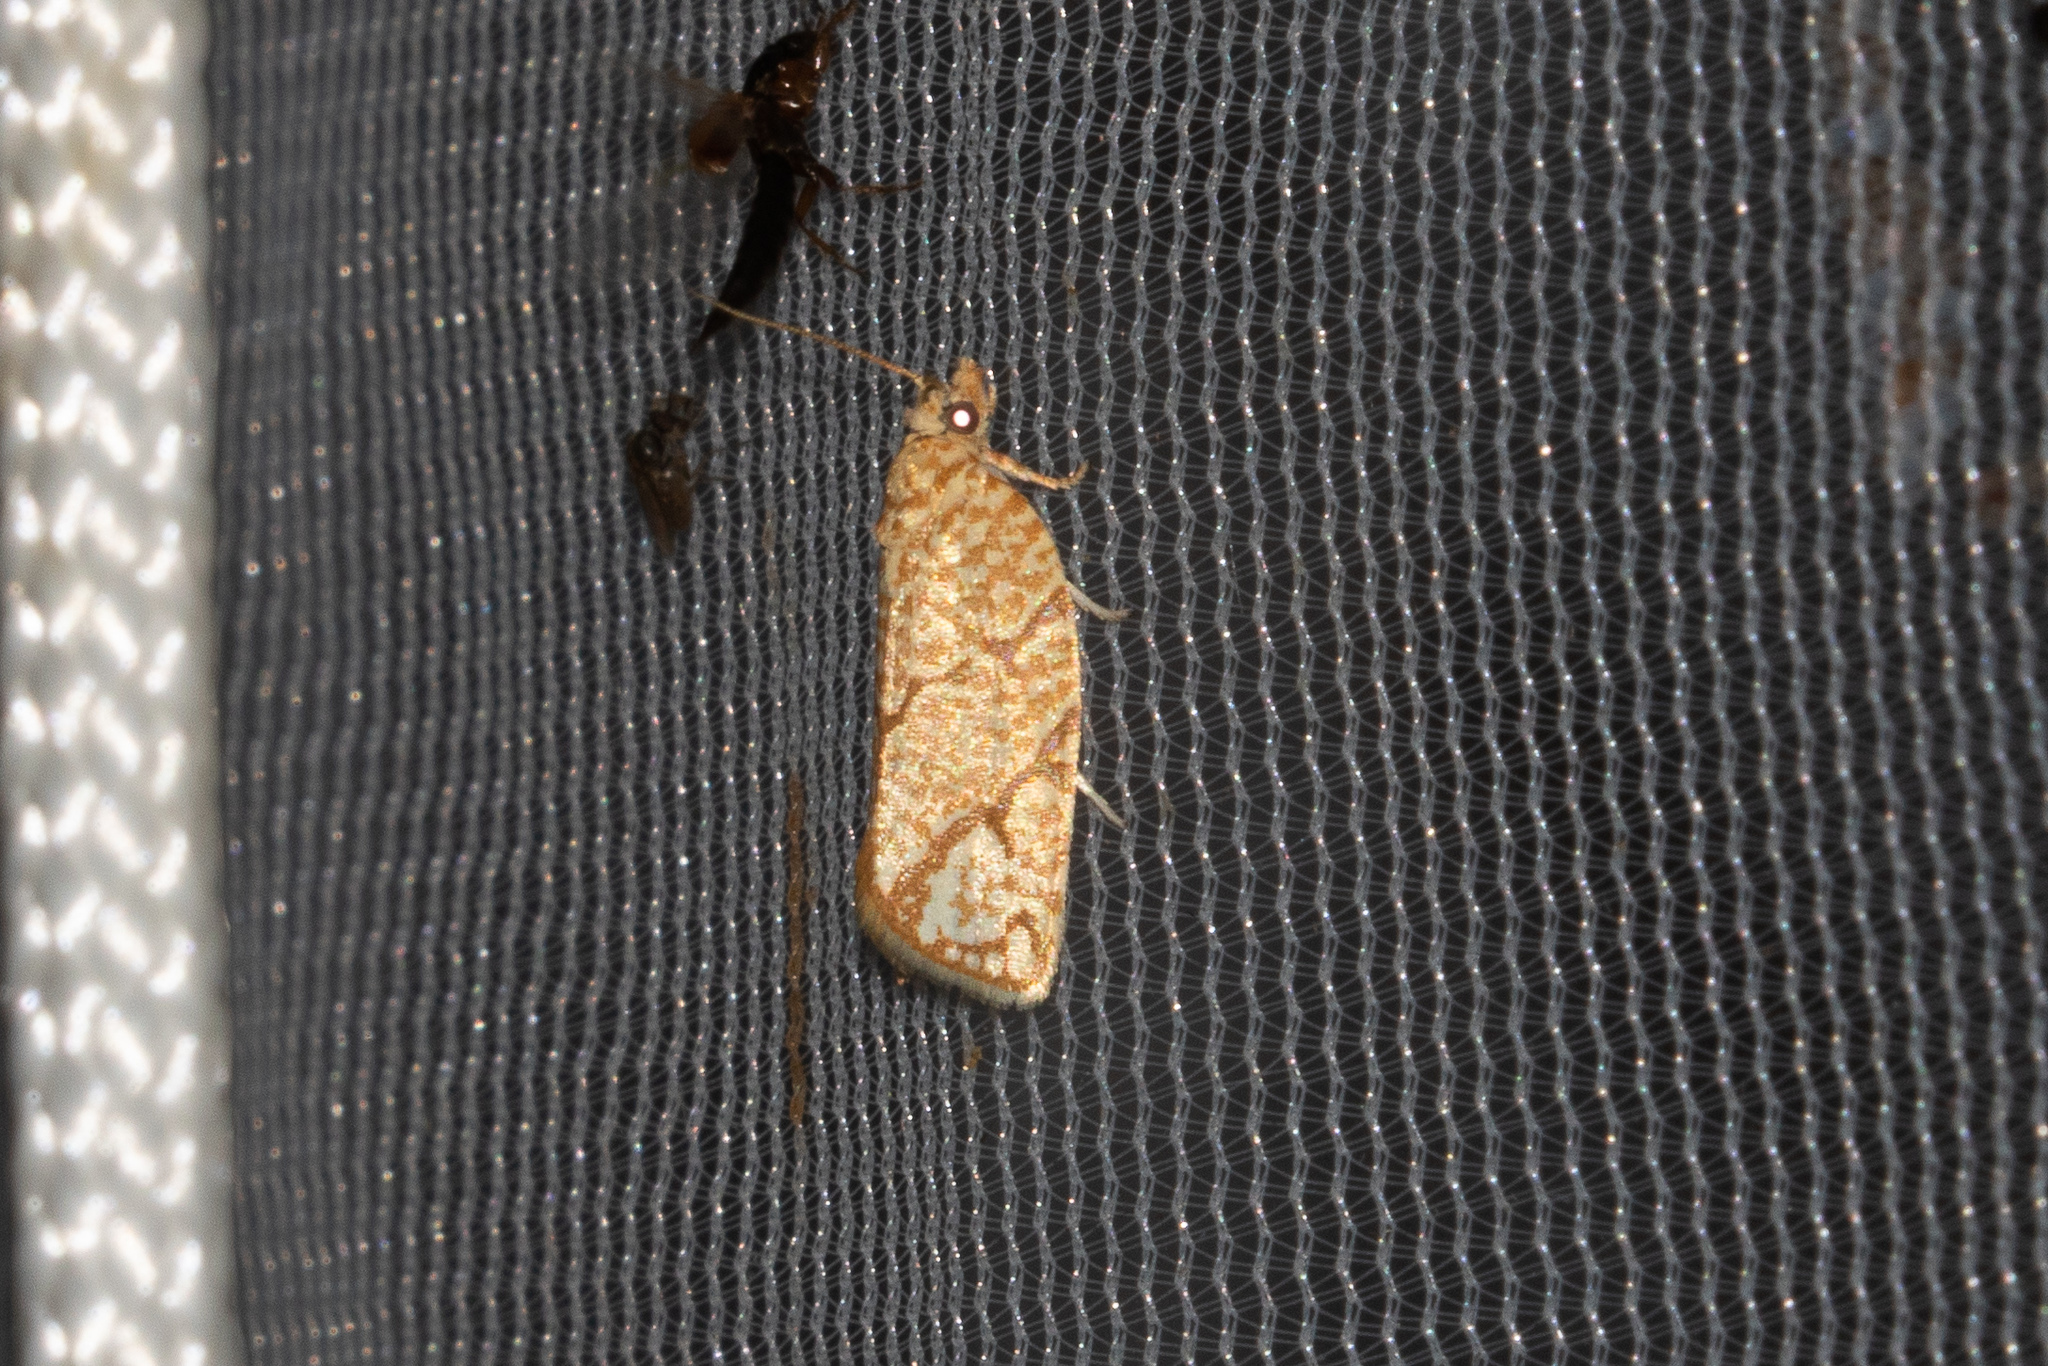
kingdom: Animalia
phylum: Arthropoda
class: Insecta
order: Lepidoptera
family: Tortricidae
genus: Argyrotaenia
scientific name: Argyrotaenia quercifoliana
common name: Yellow-winged oak leafroller moth
